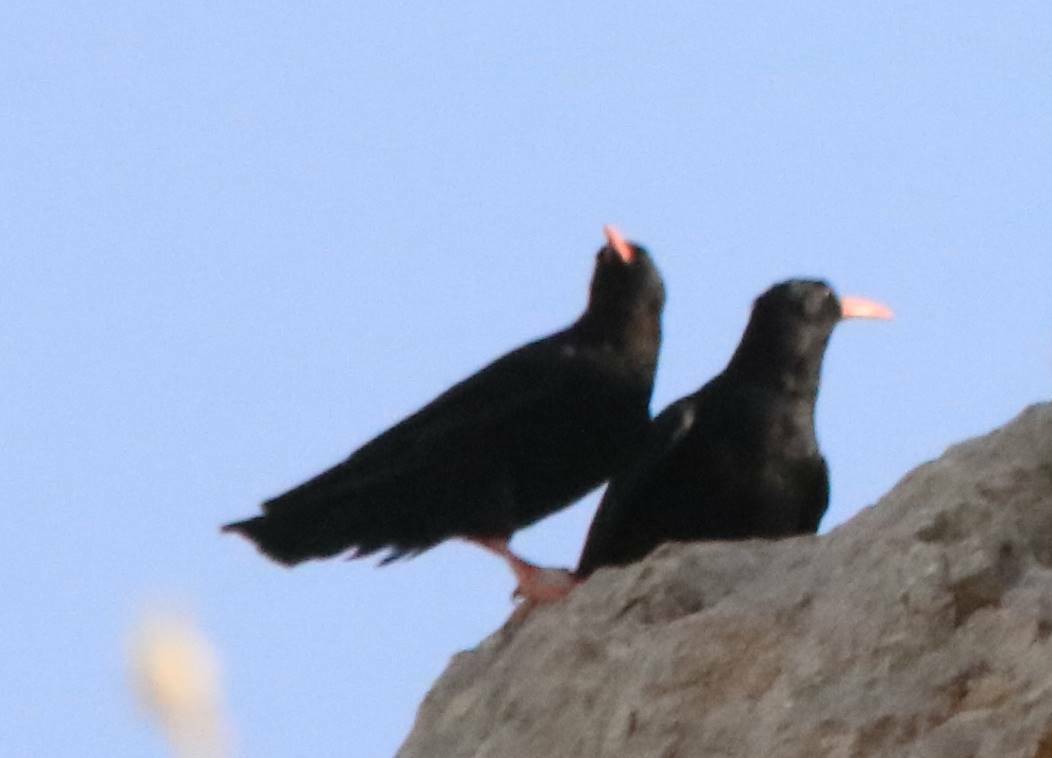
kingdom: Animalia
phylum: Chordata
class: Aves
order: Passeriformes
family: Corvidae
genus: Pyrrhocorax
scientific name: Pyrrhocorax pyrrhocorax
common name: Red-billed chough
